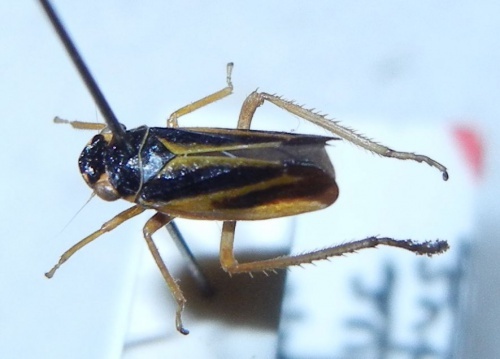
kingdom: Animalia
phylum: Arthropoda
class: Insecta
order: Hemiptera
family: Cicadellidae
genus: Evacanthus
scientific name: Evacanthus interruptus
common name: Leafhopper
